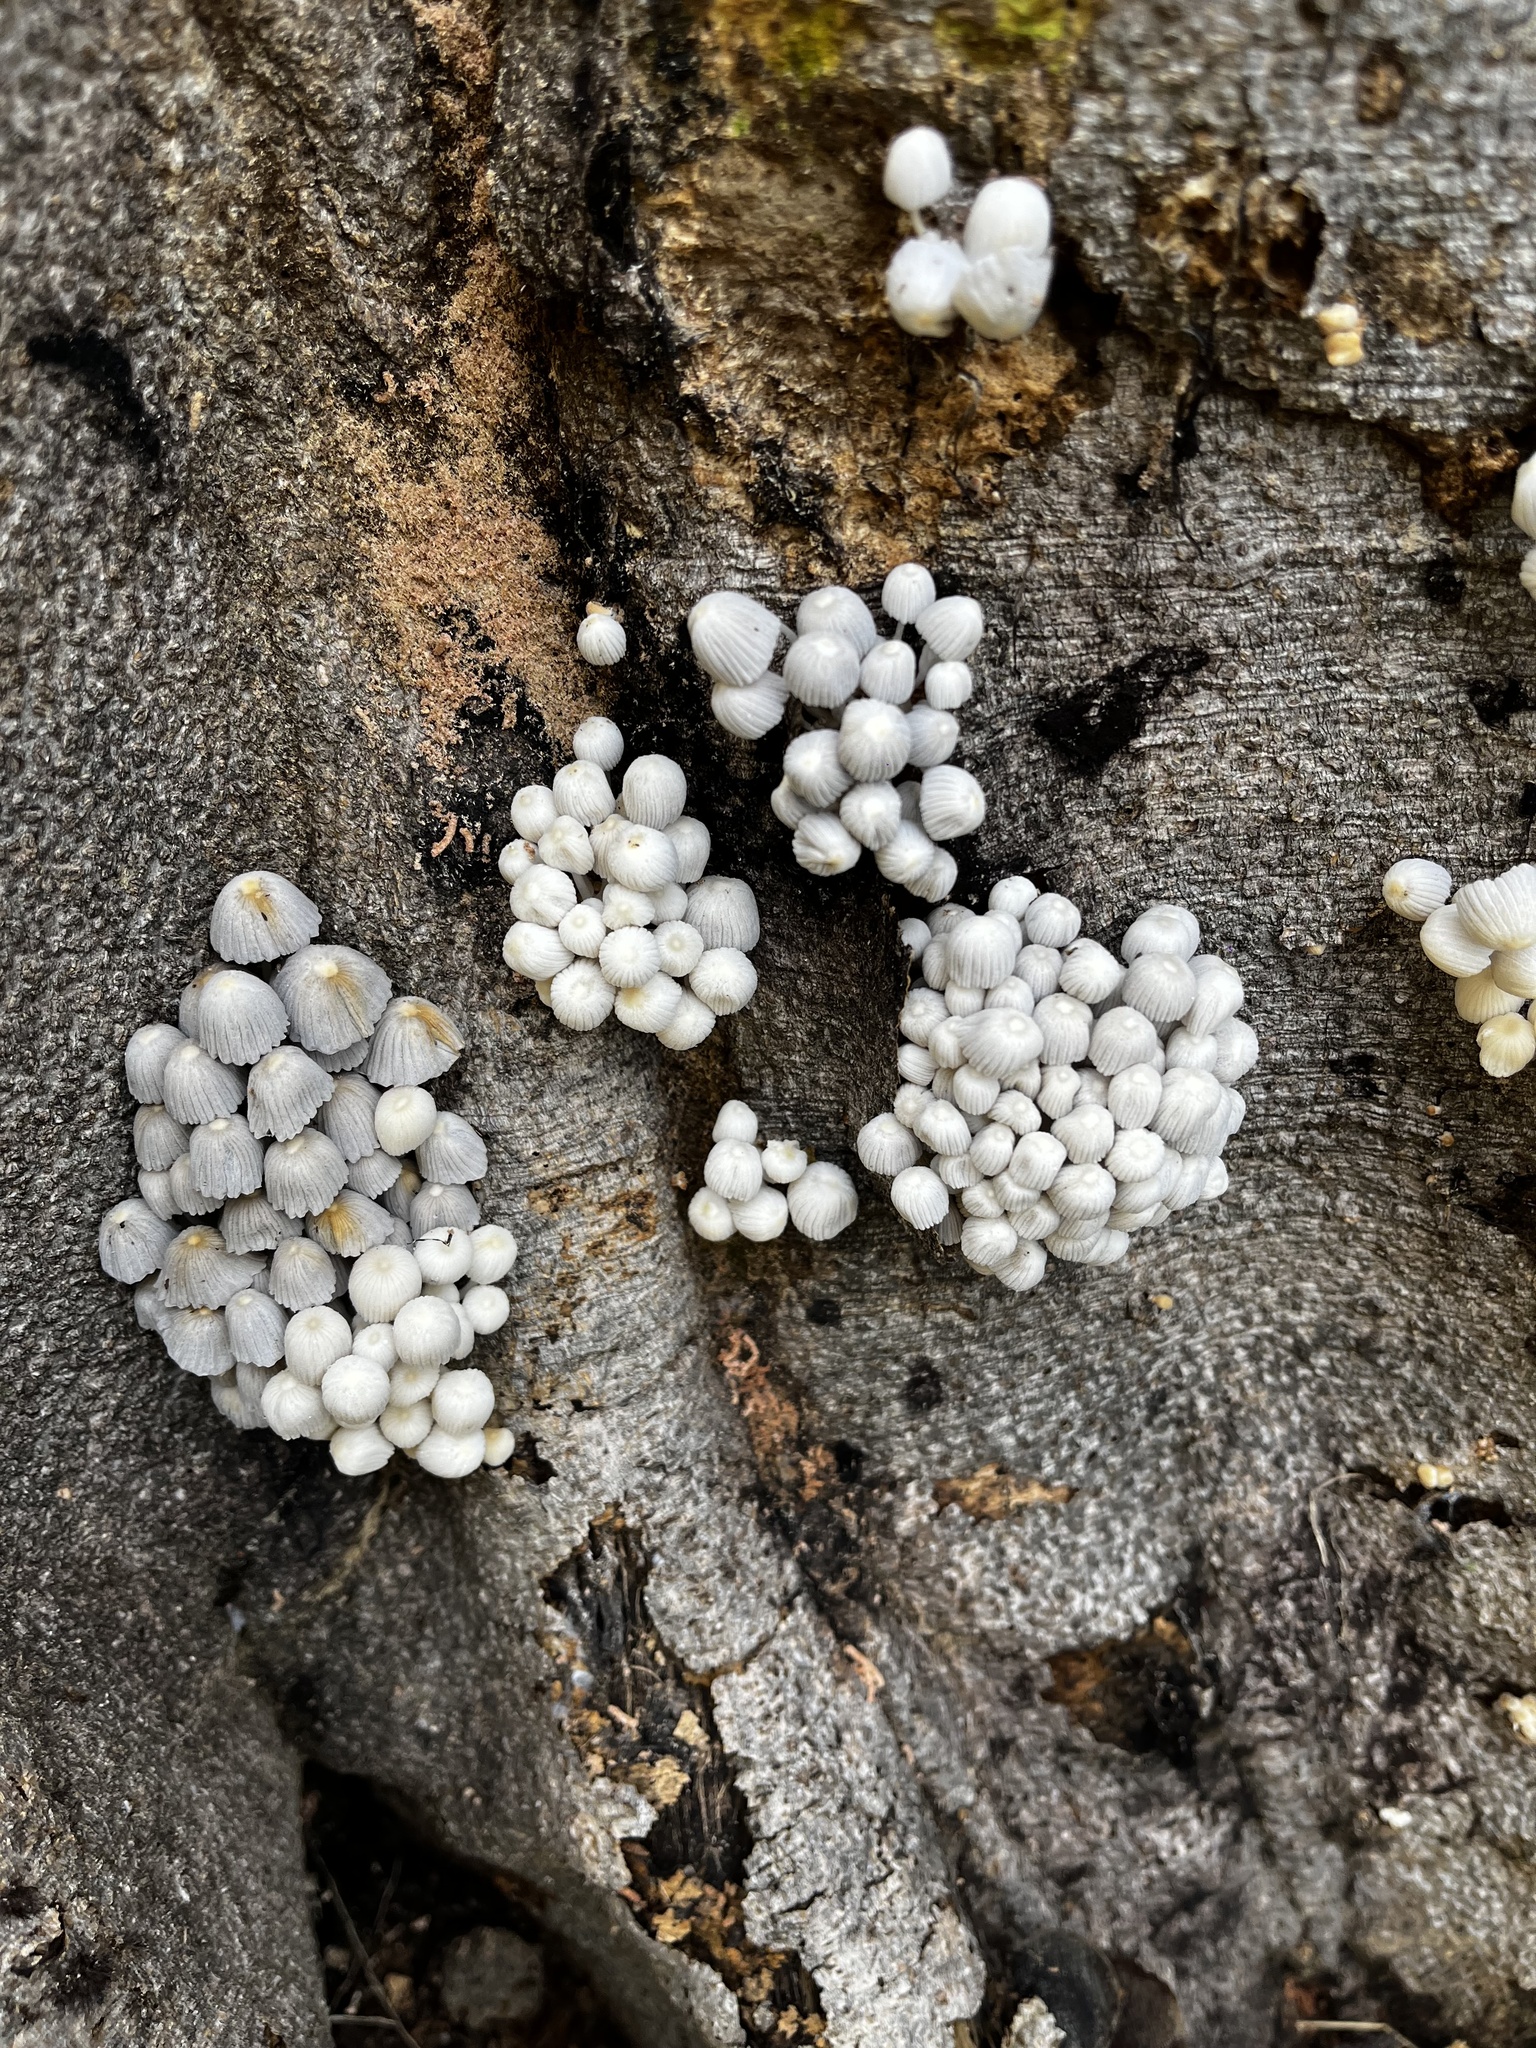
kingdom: Fungi
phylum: Basidiomycota
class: Agaricomycetes
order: Agaricales
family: Psathyrellaceae
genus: Coprinellus
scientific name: Coprinellus disseminatus
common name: Fairies' bonnets
